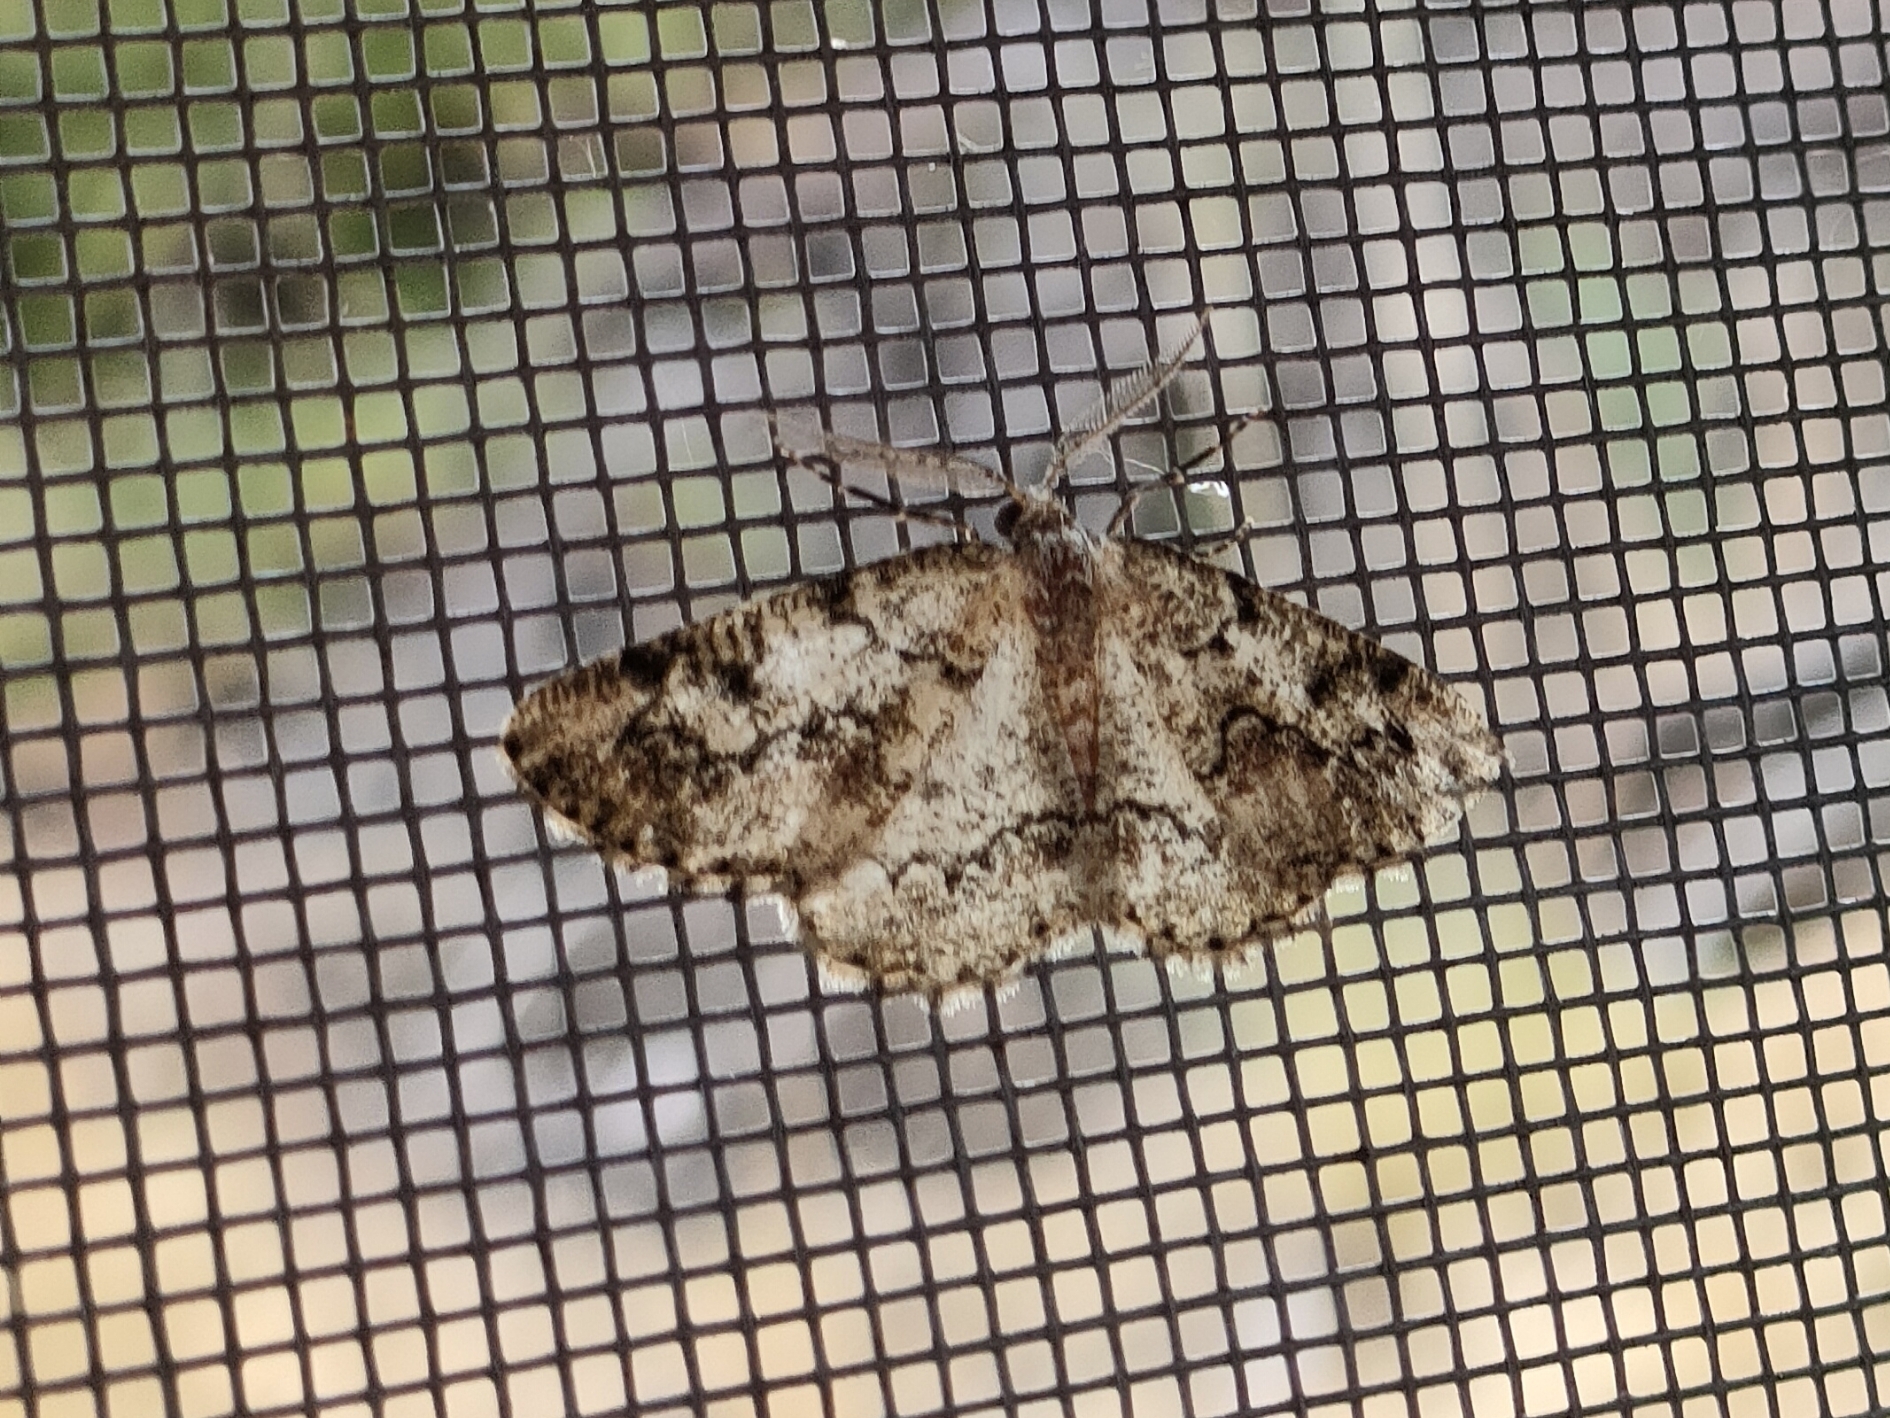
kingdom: Animalia
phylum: Arthropoda
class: Insecta
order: Lepidoptera
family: Geometridae
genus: Cleorodes
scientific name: Cleorodes lichenaria
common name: Brussels lace
